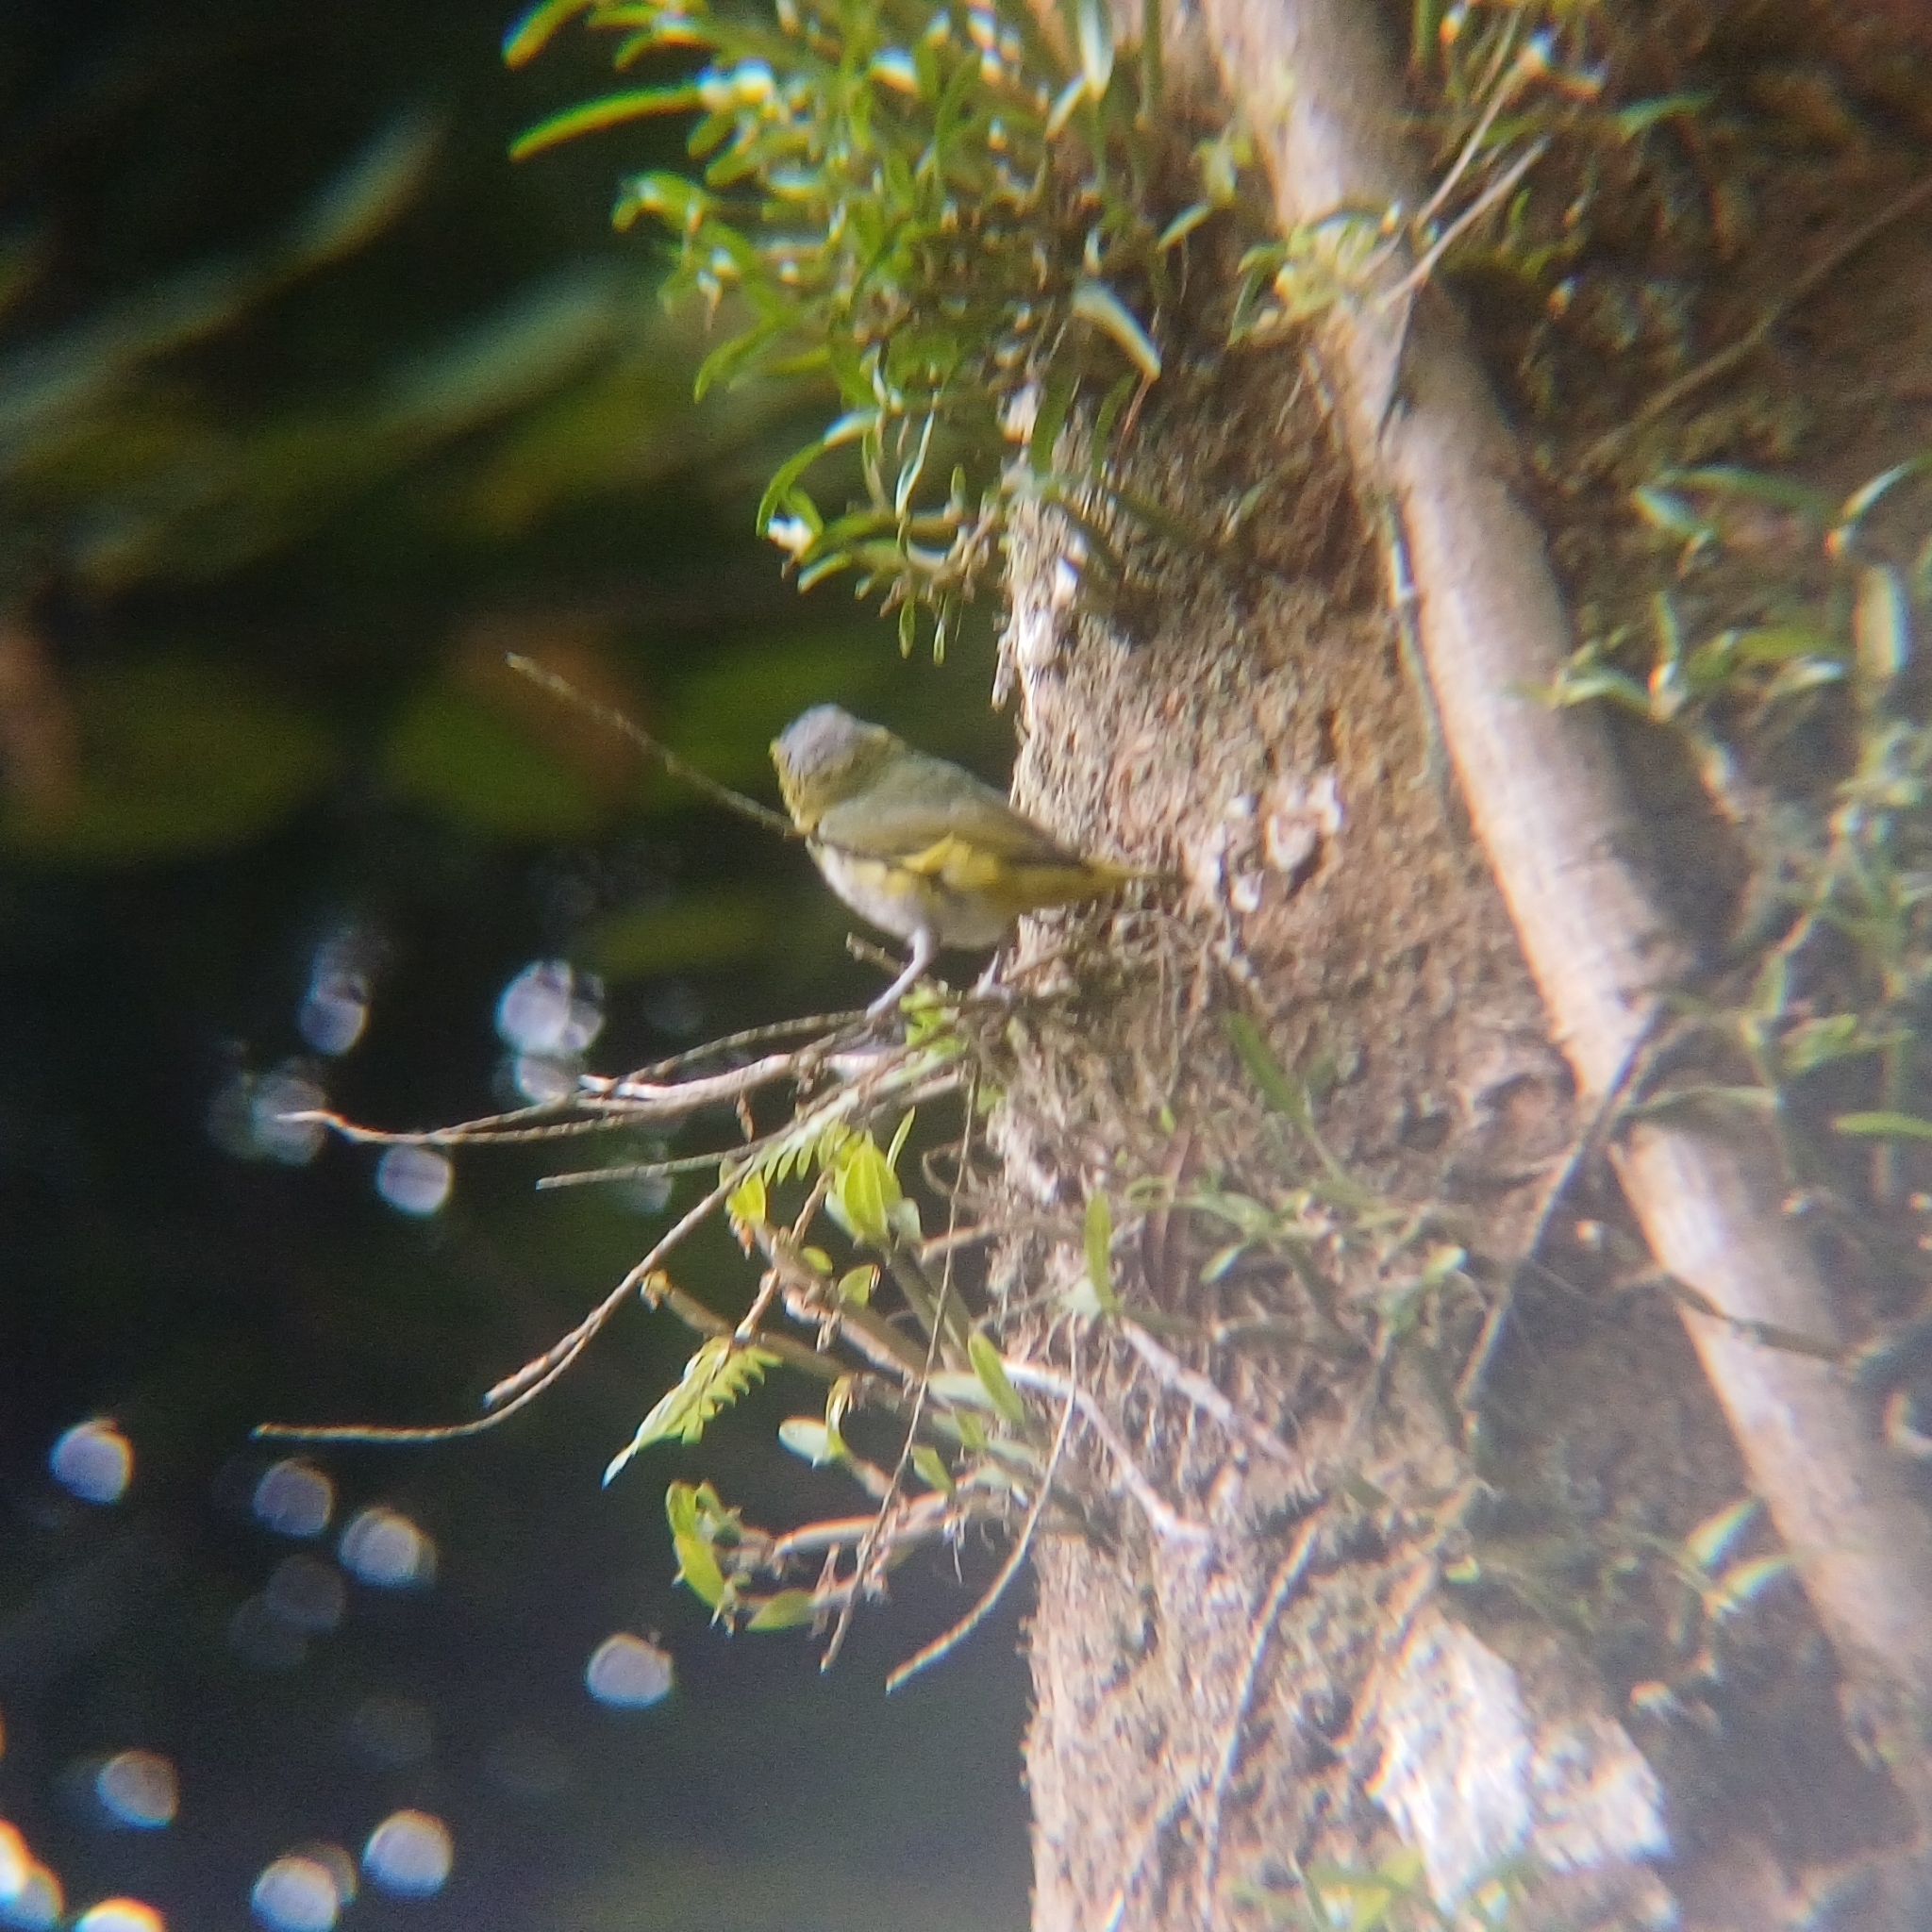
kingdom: Animalia
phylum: Chordata
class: Aves
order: Passeriformes
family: Fringillidae
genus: Euphonia
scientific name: Euphonia chrysopasta
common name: White-lored euphonia
